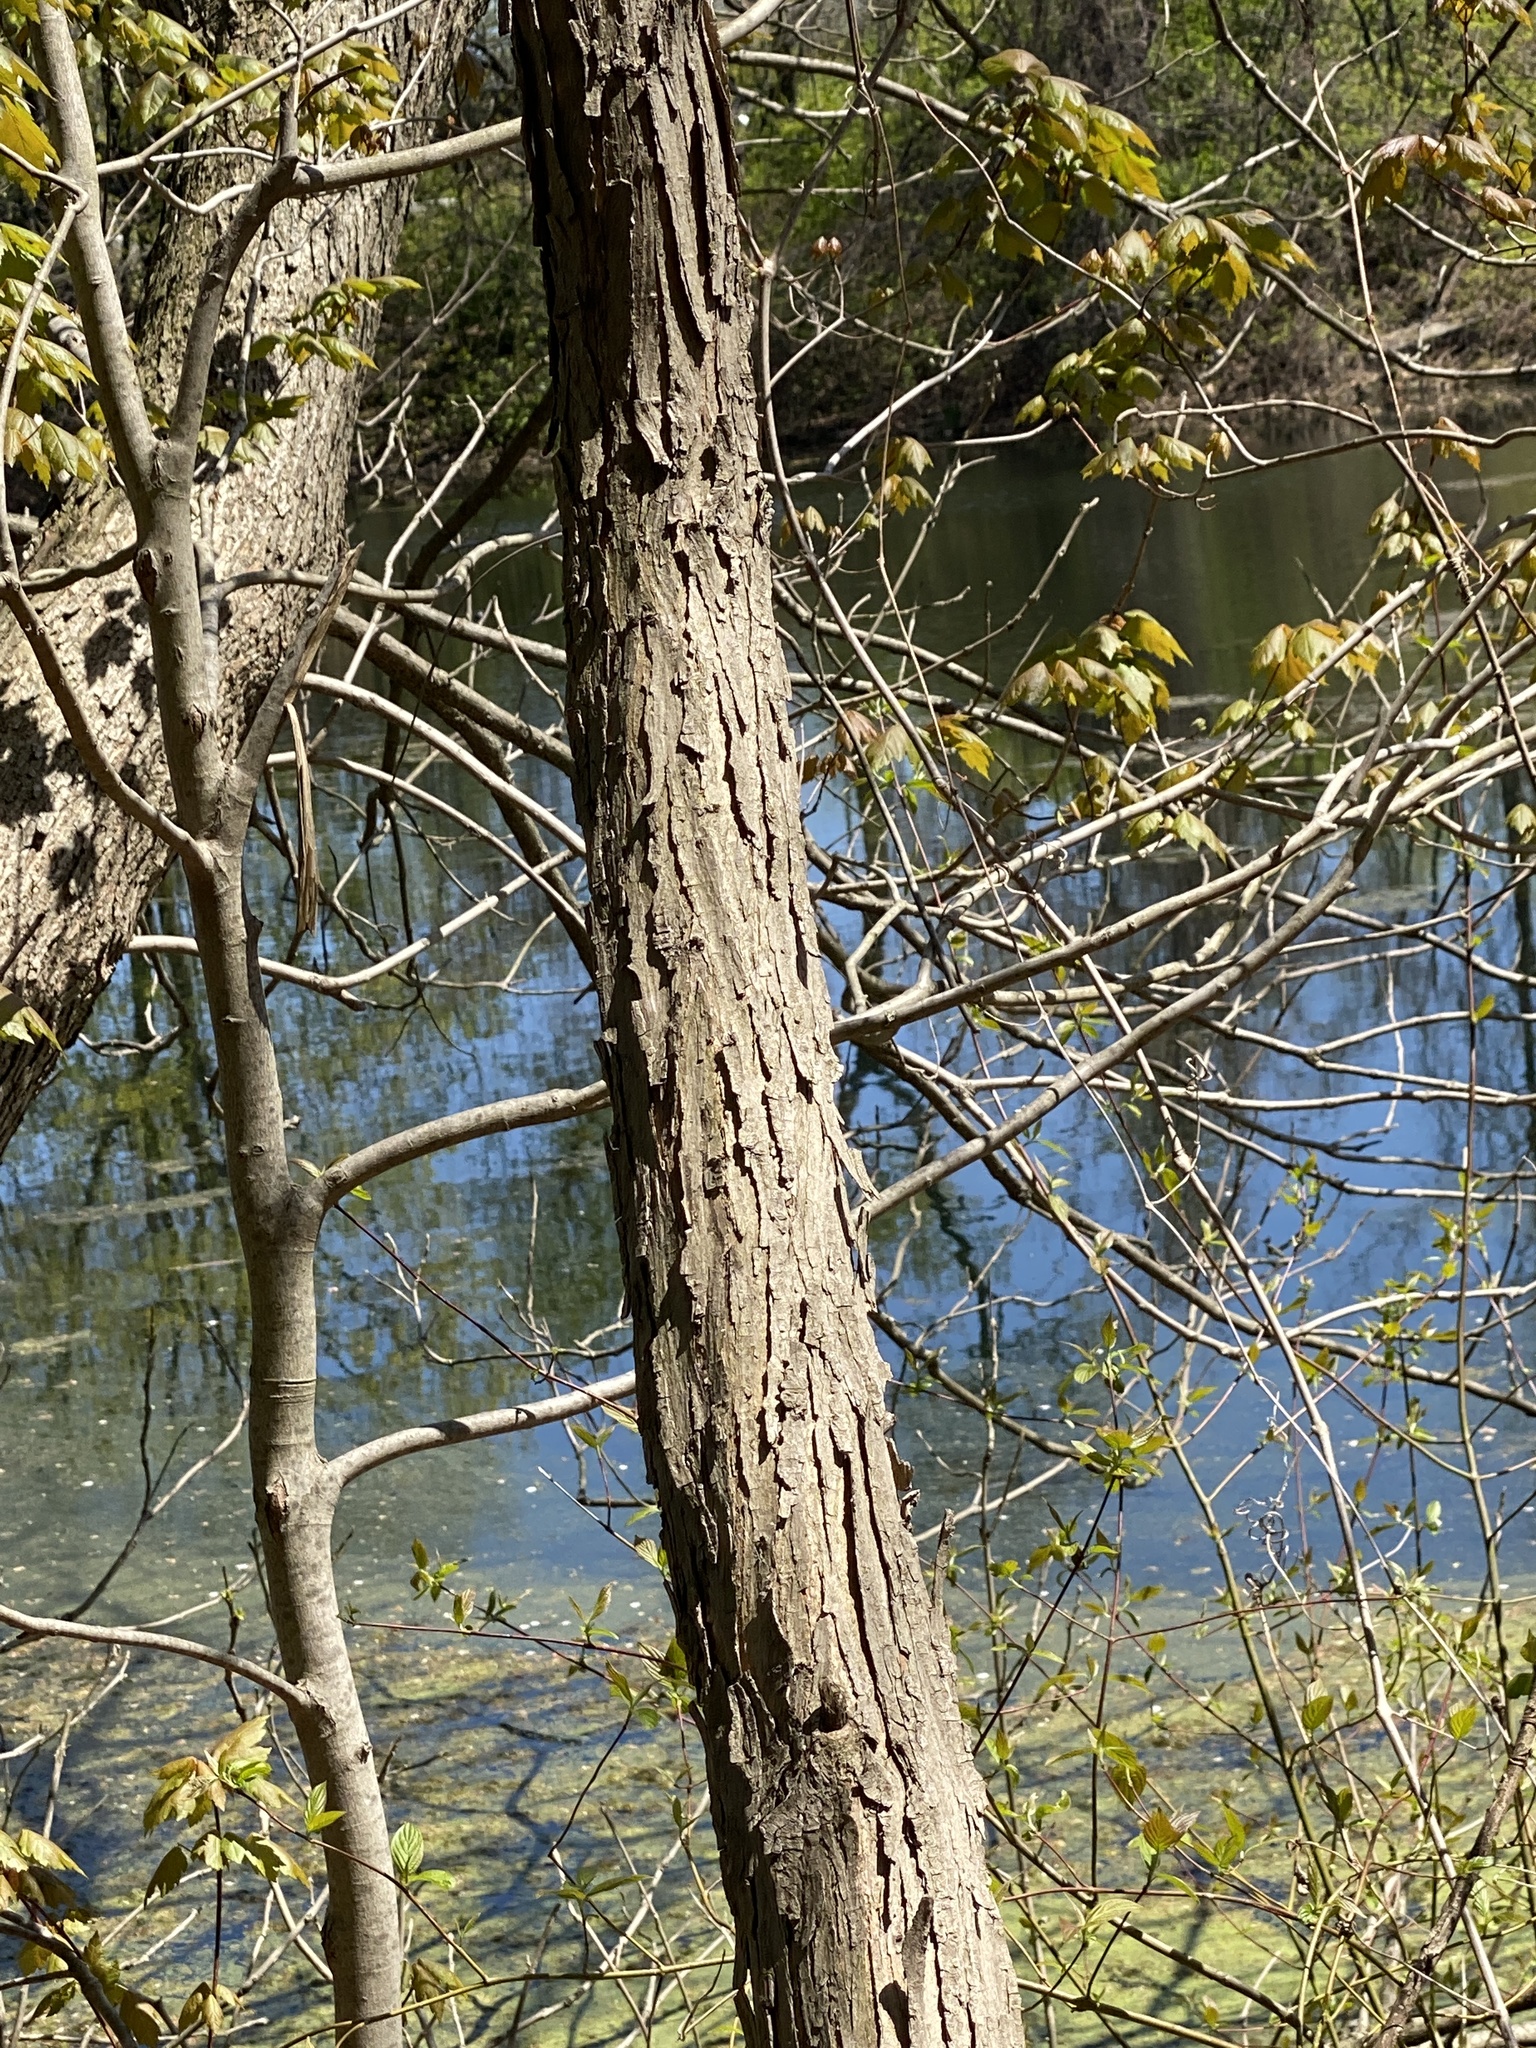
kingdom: Plantae
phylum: Tracheophyta
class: Magnoliopsida
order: Fagales
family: Juglandaceae
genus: Carya
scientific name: Carya ovata
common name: Shagbark hickory
